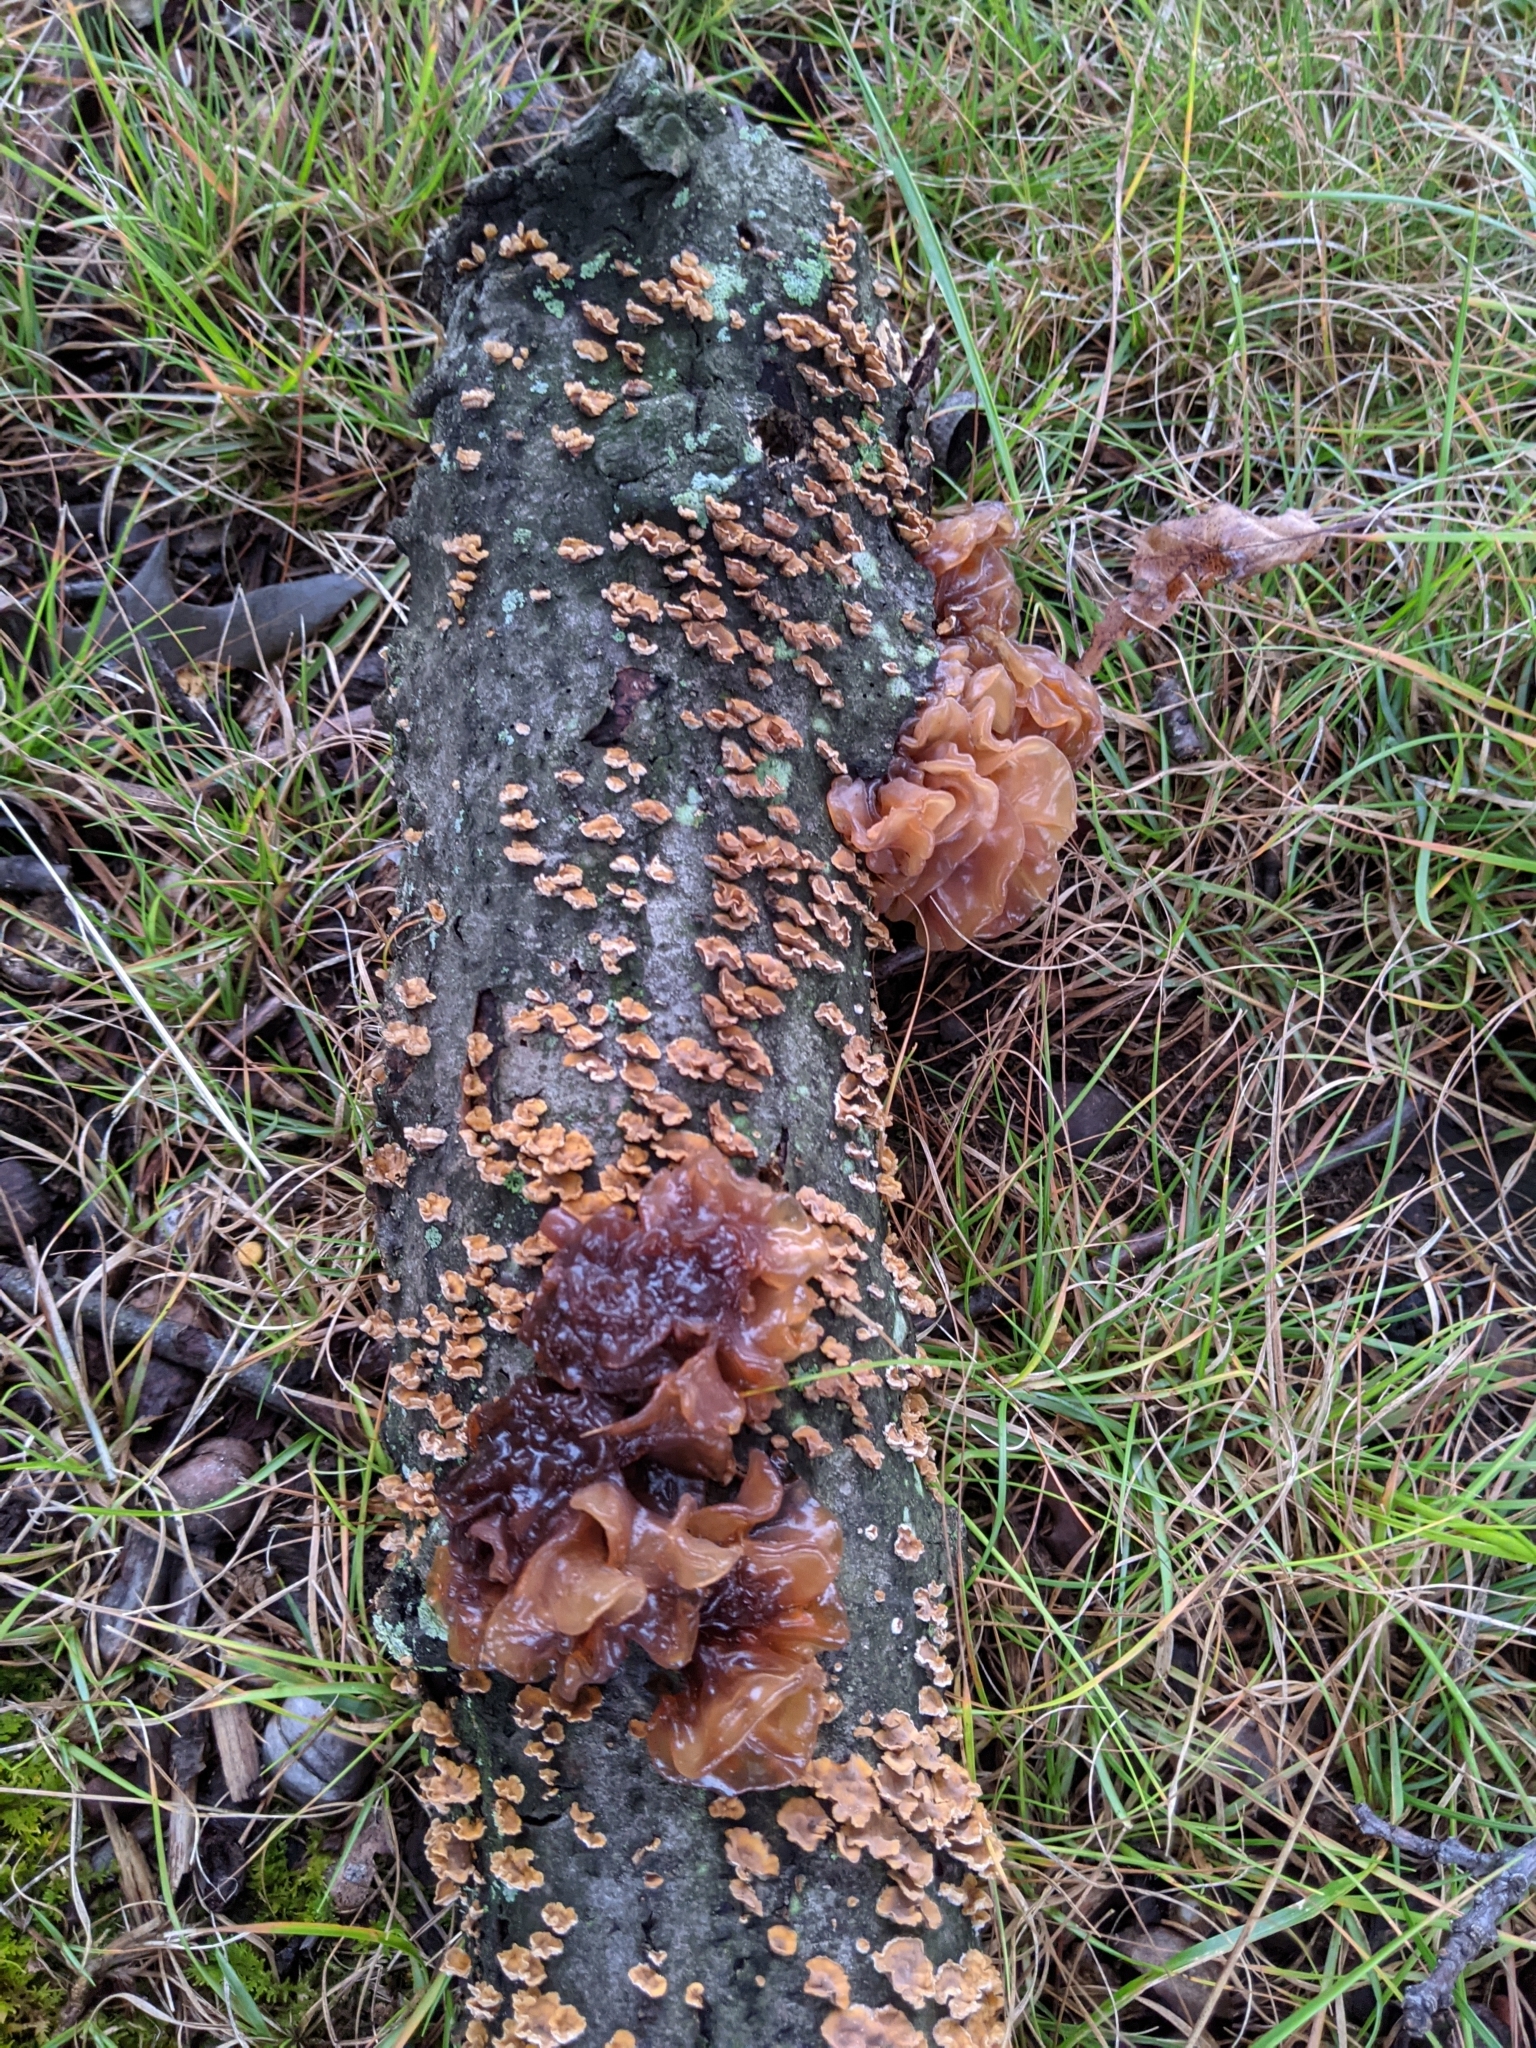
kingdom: Fungi
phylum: Basidiomycota
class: Tremellomycetes
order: Tremellales
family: Tremellaceae
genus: Phaeotremella
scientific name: Phaeotremella frondosa
